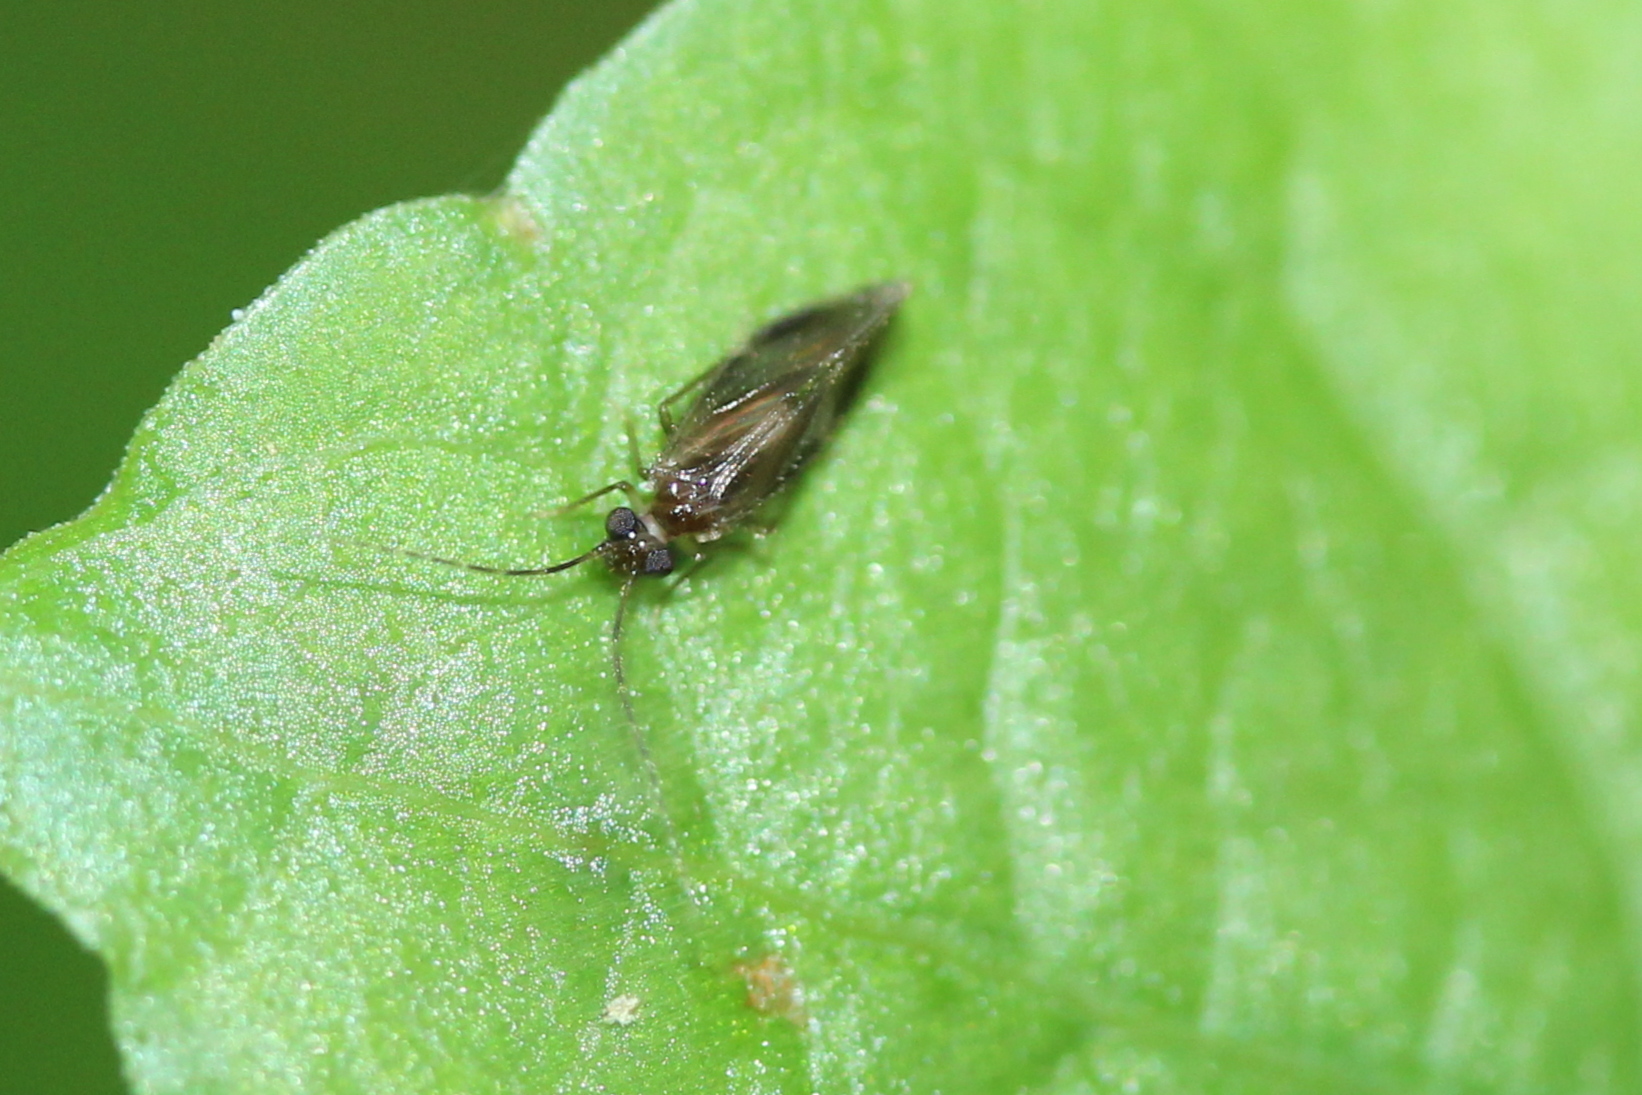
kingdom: Animalia
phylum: Arthropoda
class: Insecta
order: Psocodea
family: Amphipsocidae
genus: Polypsocus
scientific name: Polypsocus corruptus
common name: Corrupt barklouse
